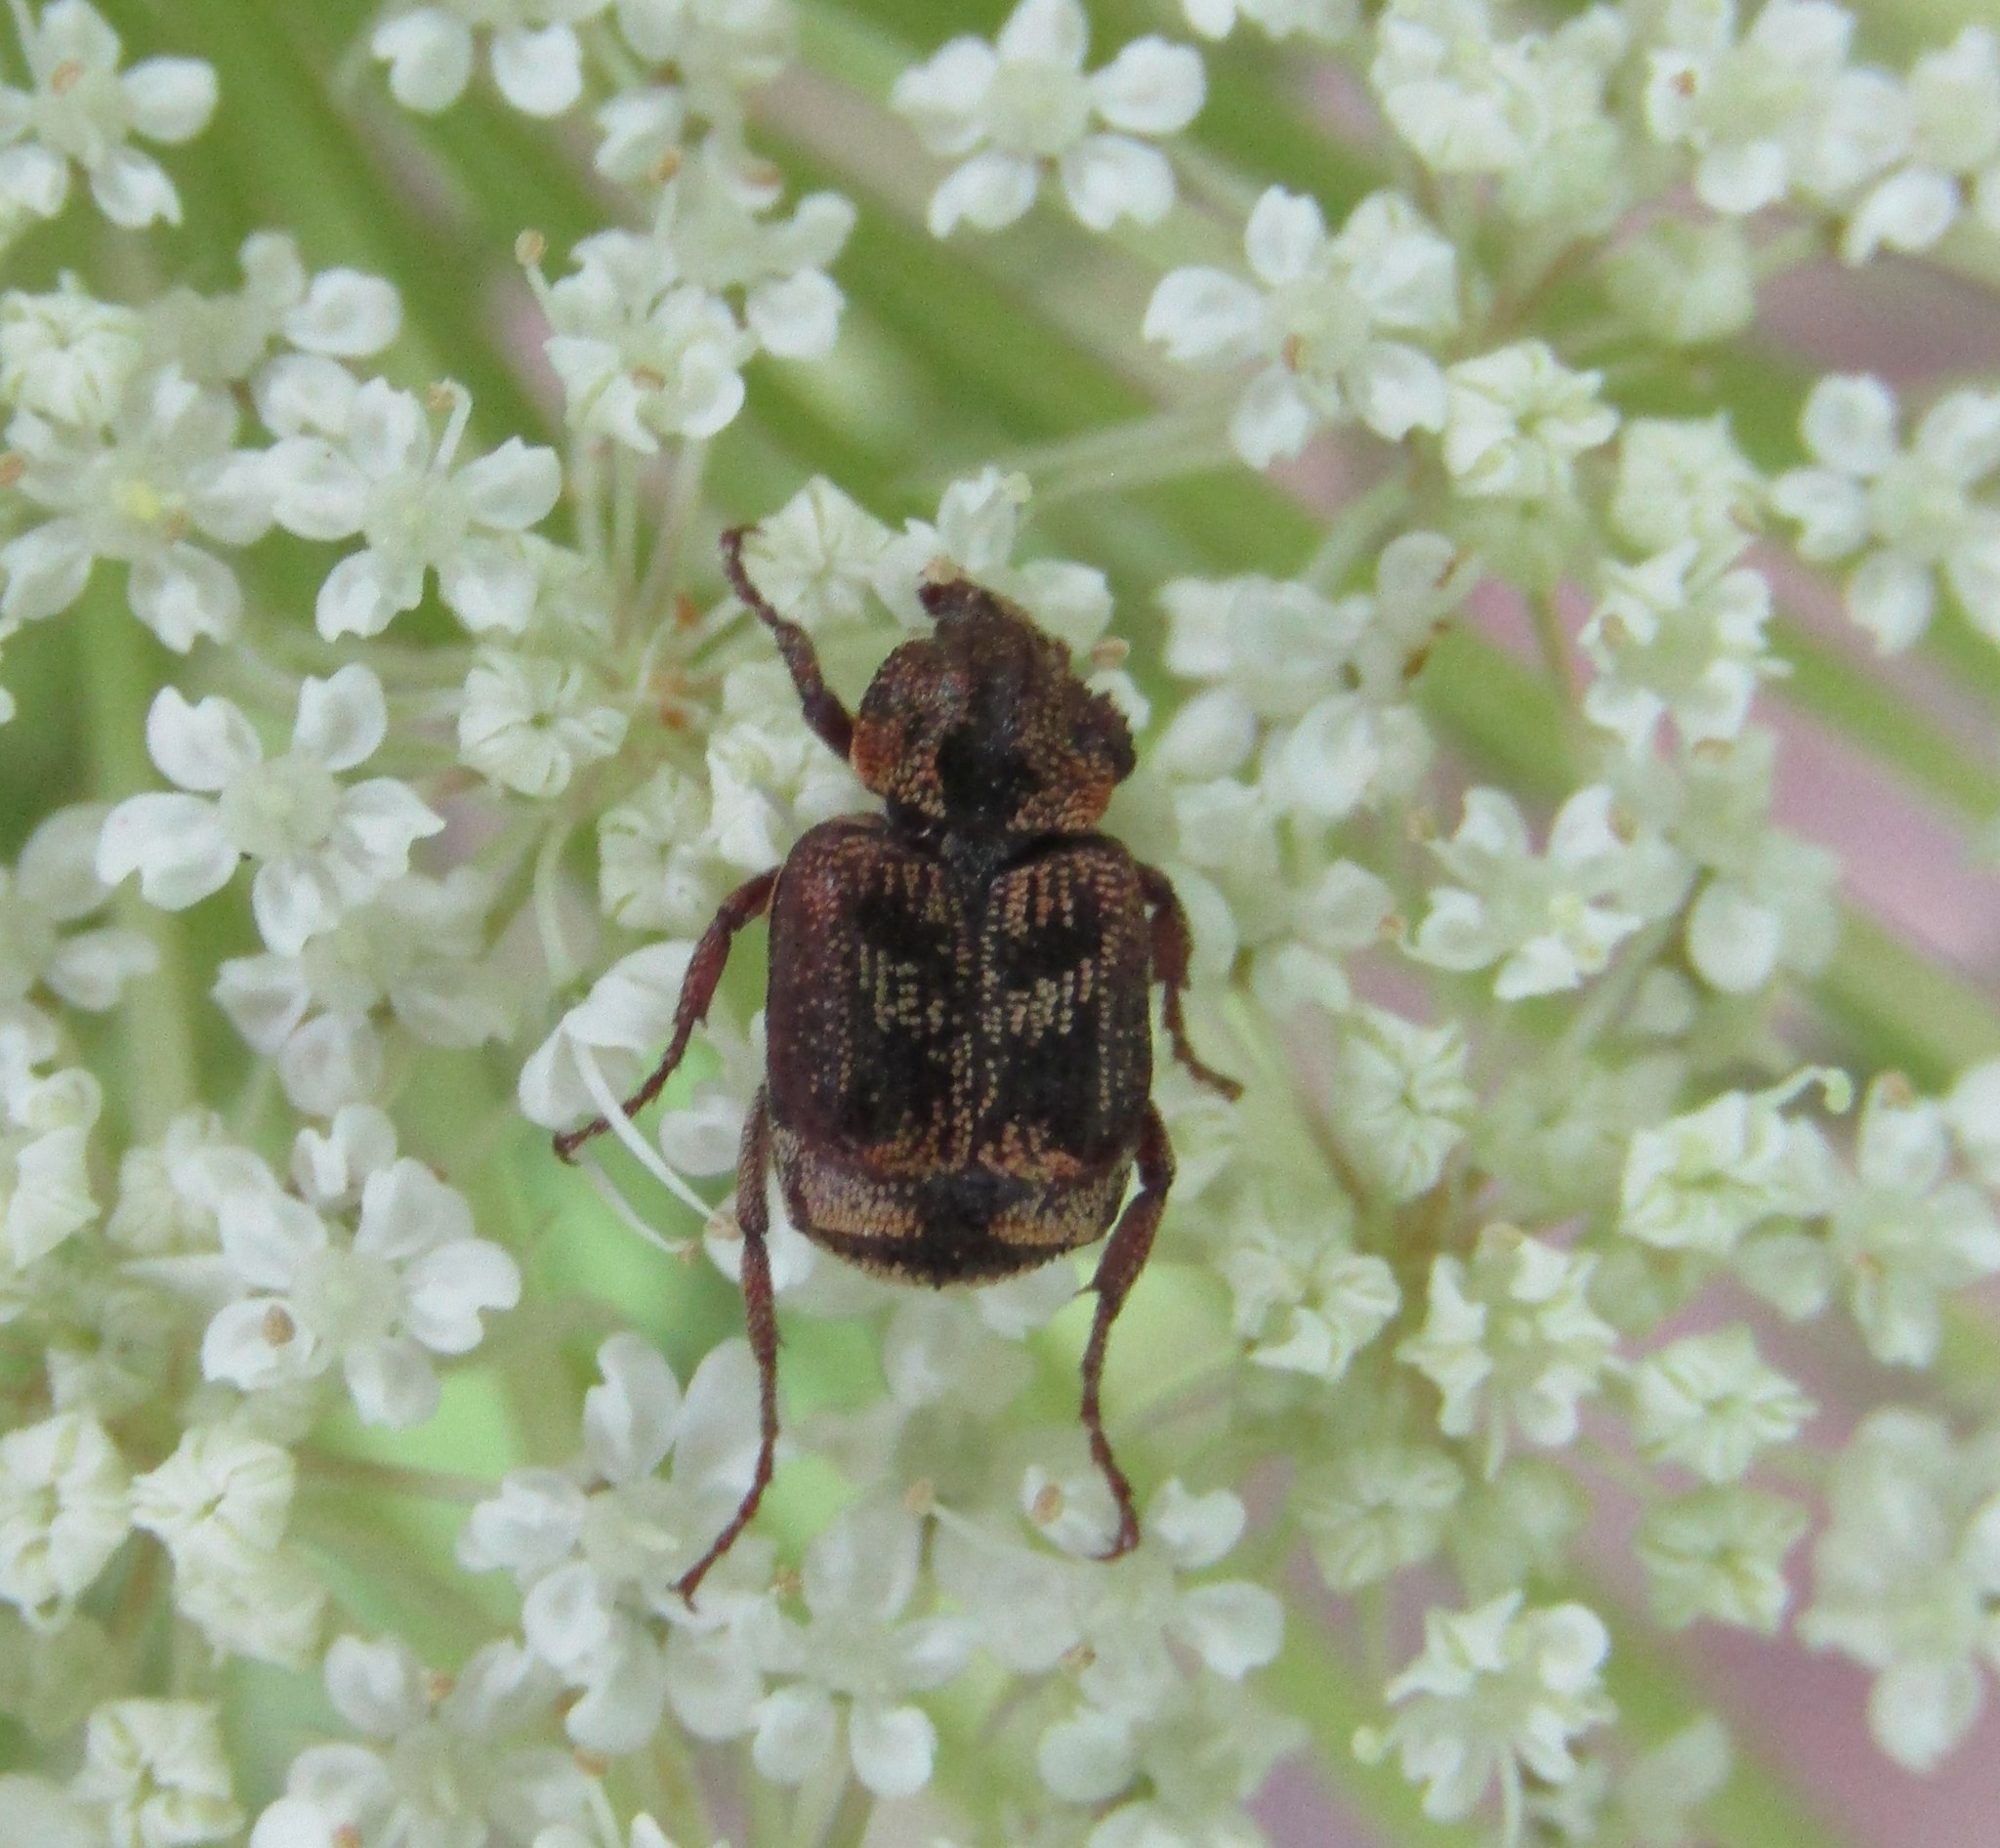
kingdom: Animalia
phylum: Arthropoda
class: Insecta
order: Coleoptera
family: Scarabaeidae
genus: Valgus
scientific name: Valgus canaliculatus
